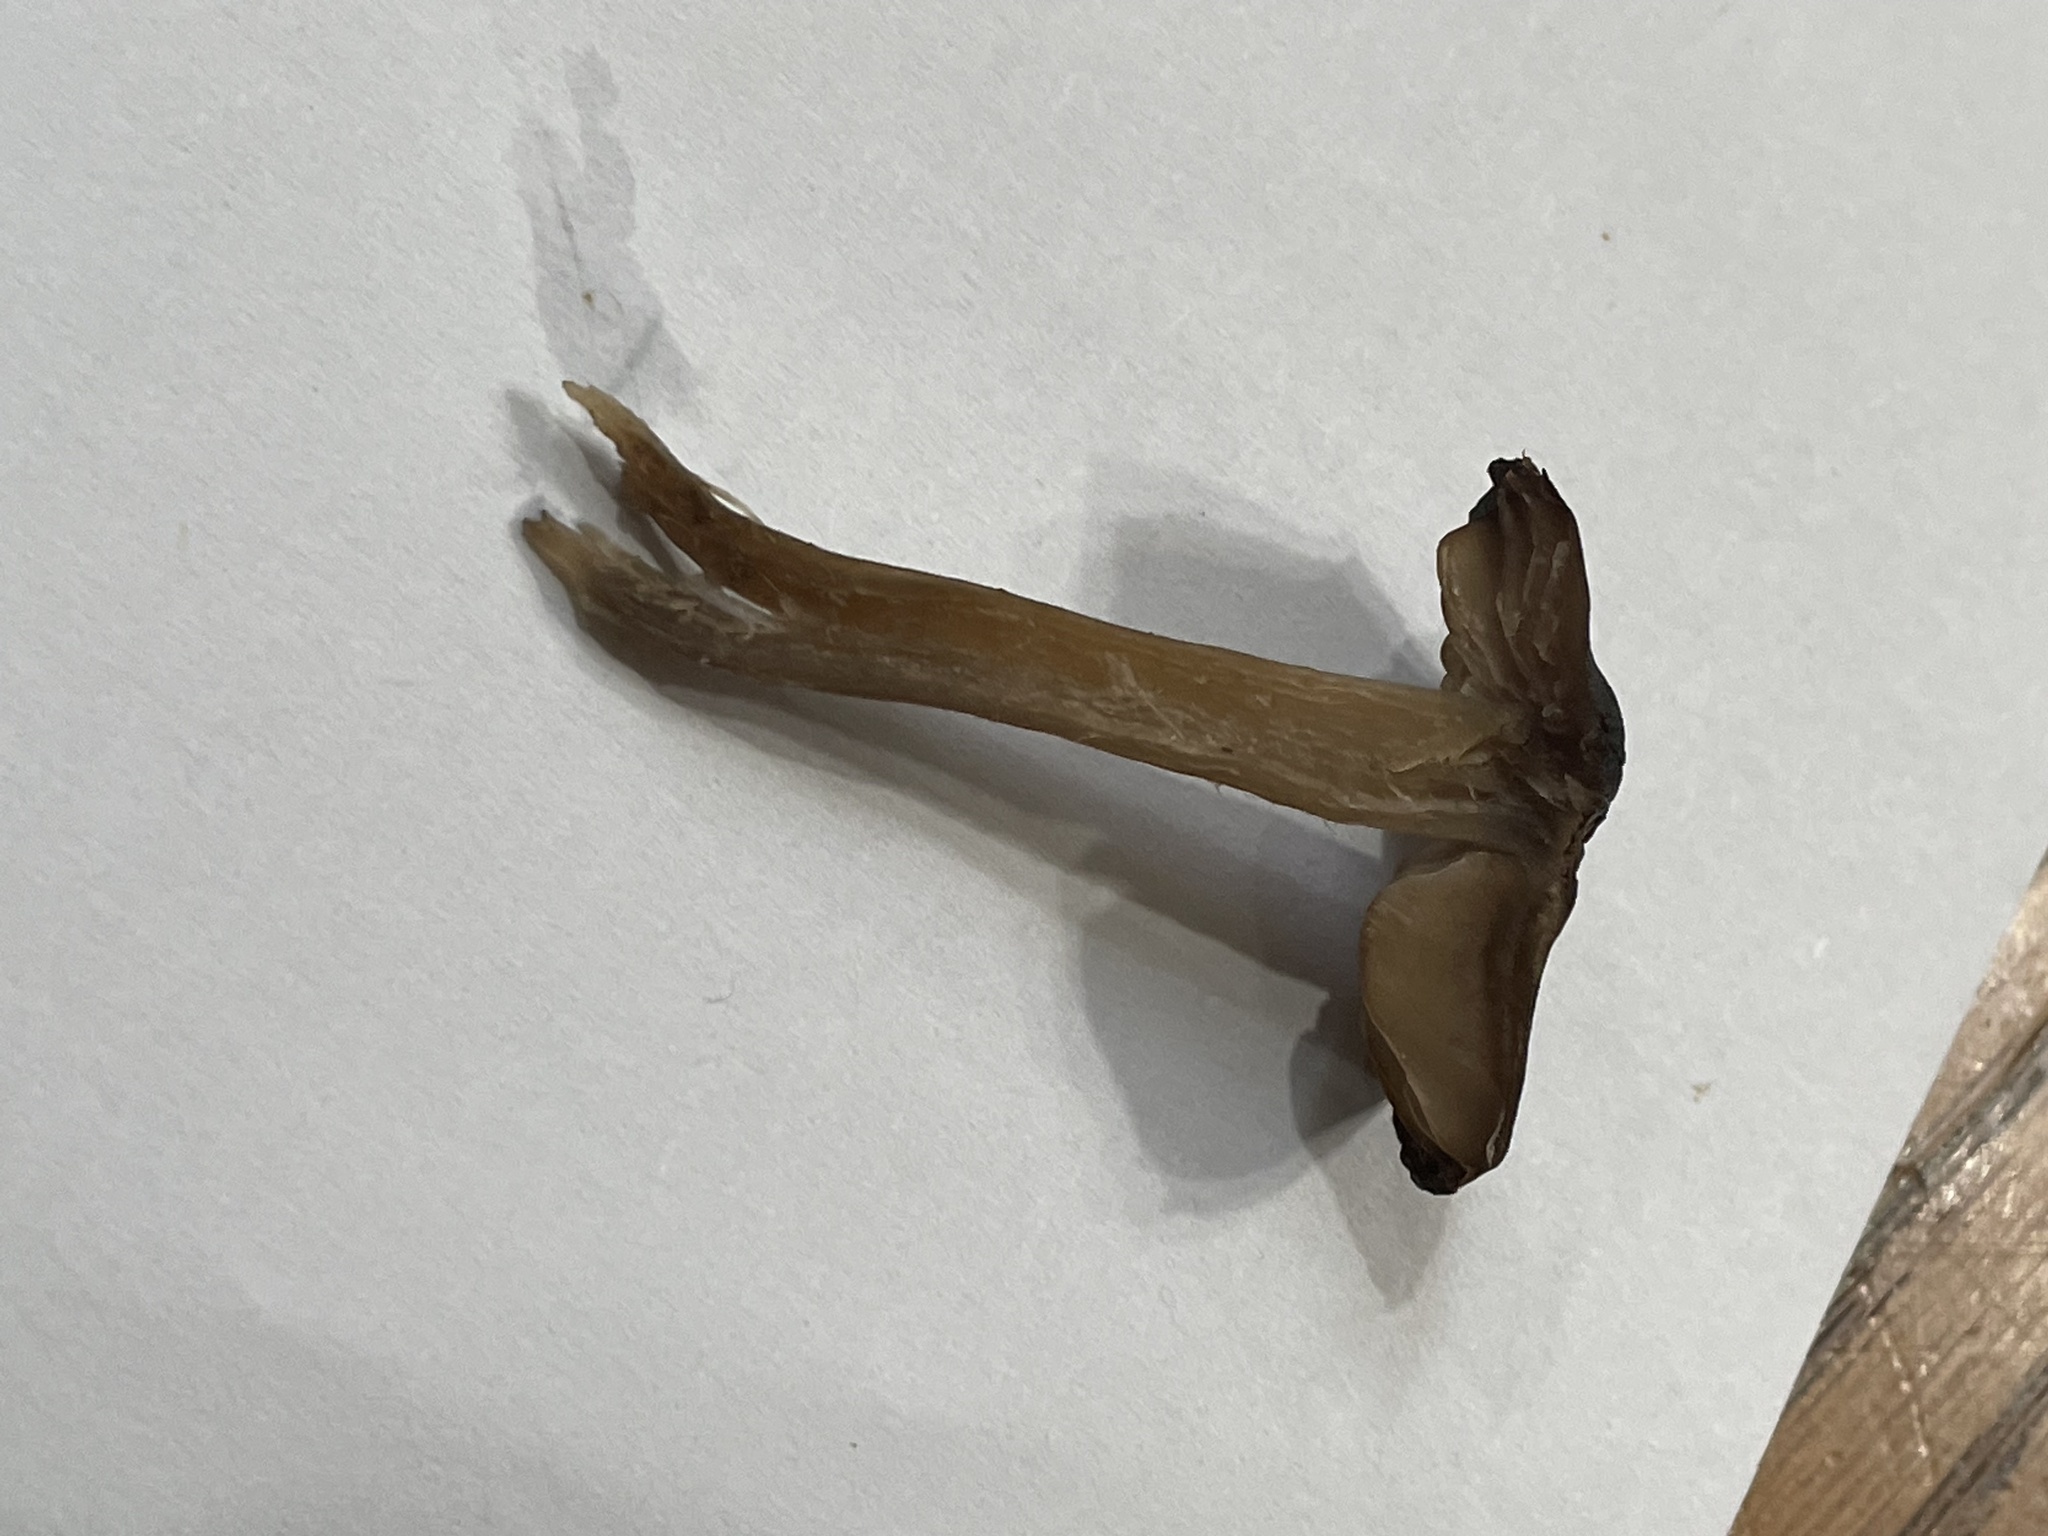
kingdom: Fungi
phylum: Basidiomycota
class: Agaricomycetes
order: Agaricales
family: Entolomataceae
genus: Entoloma
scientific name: Entoloma sericeum
